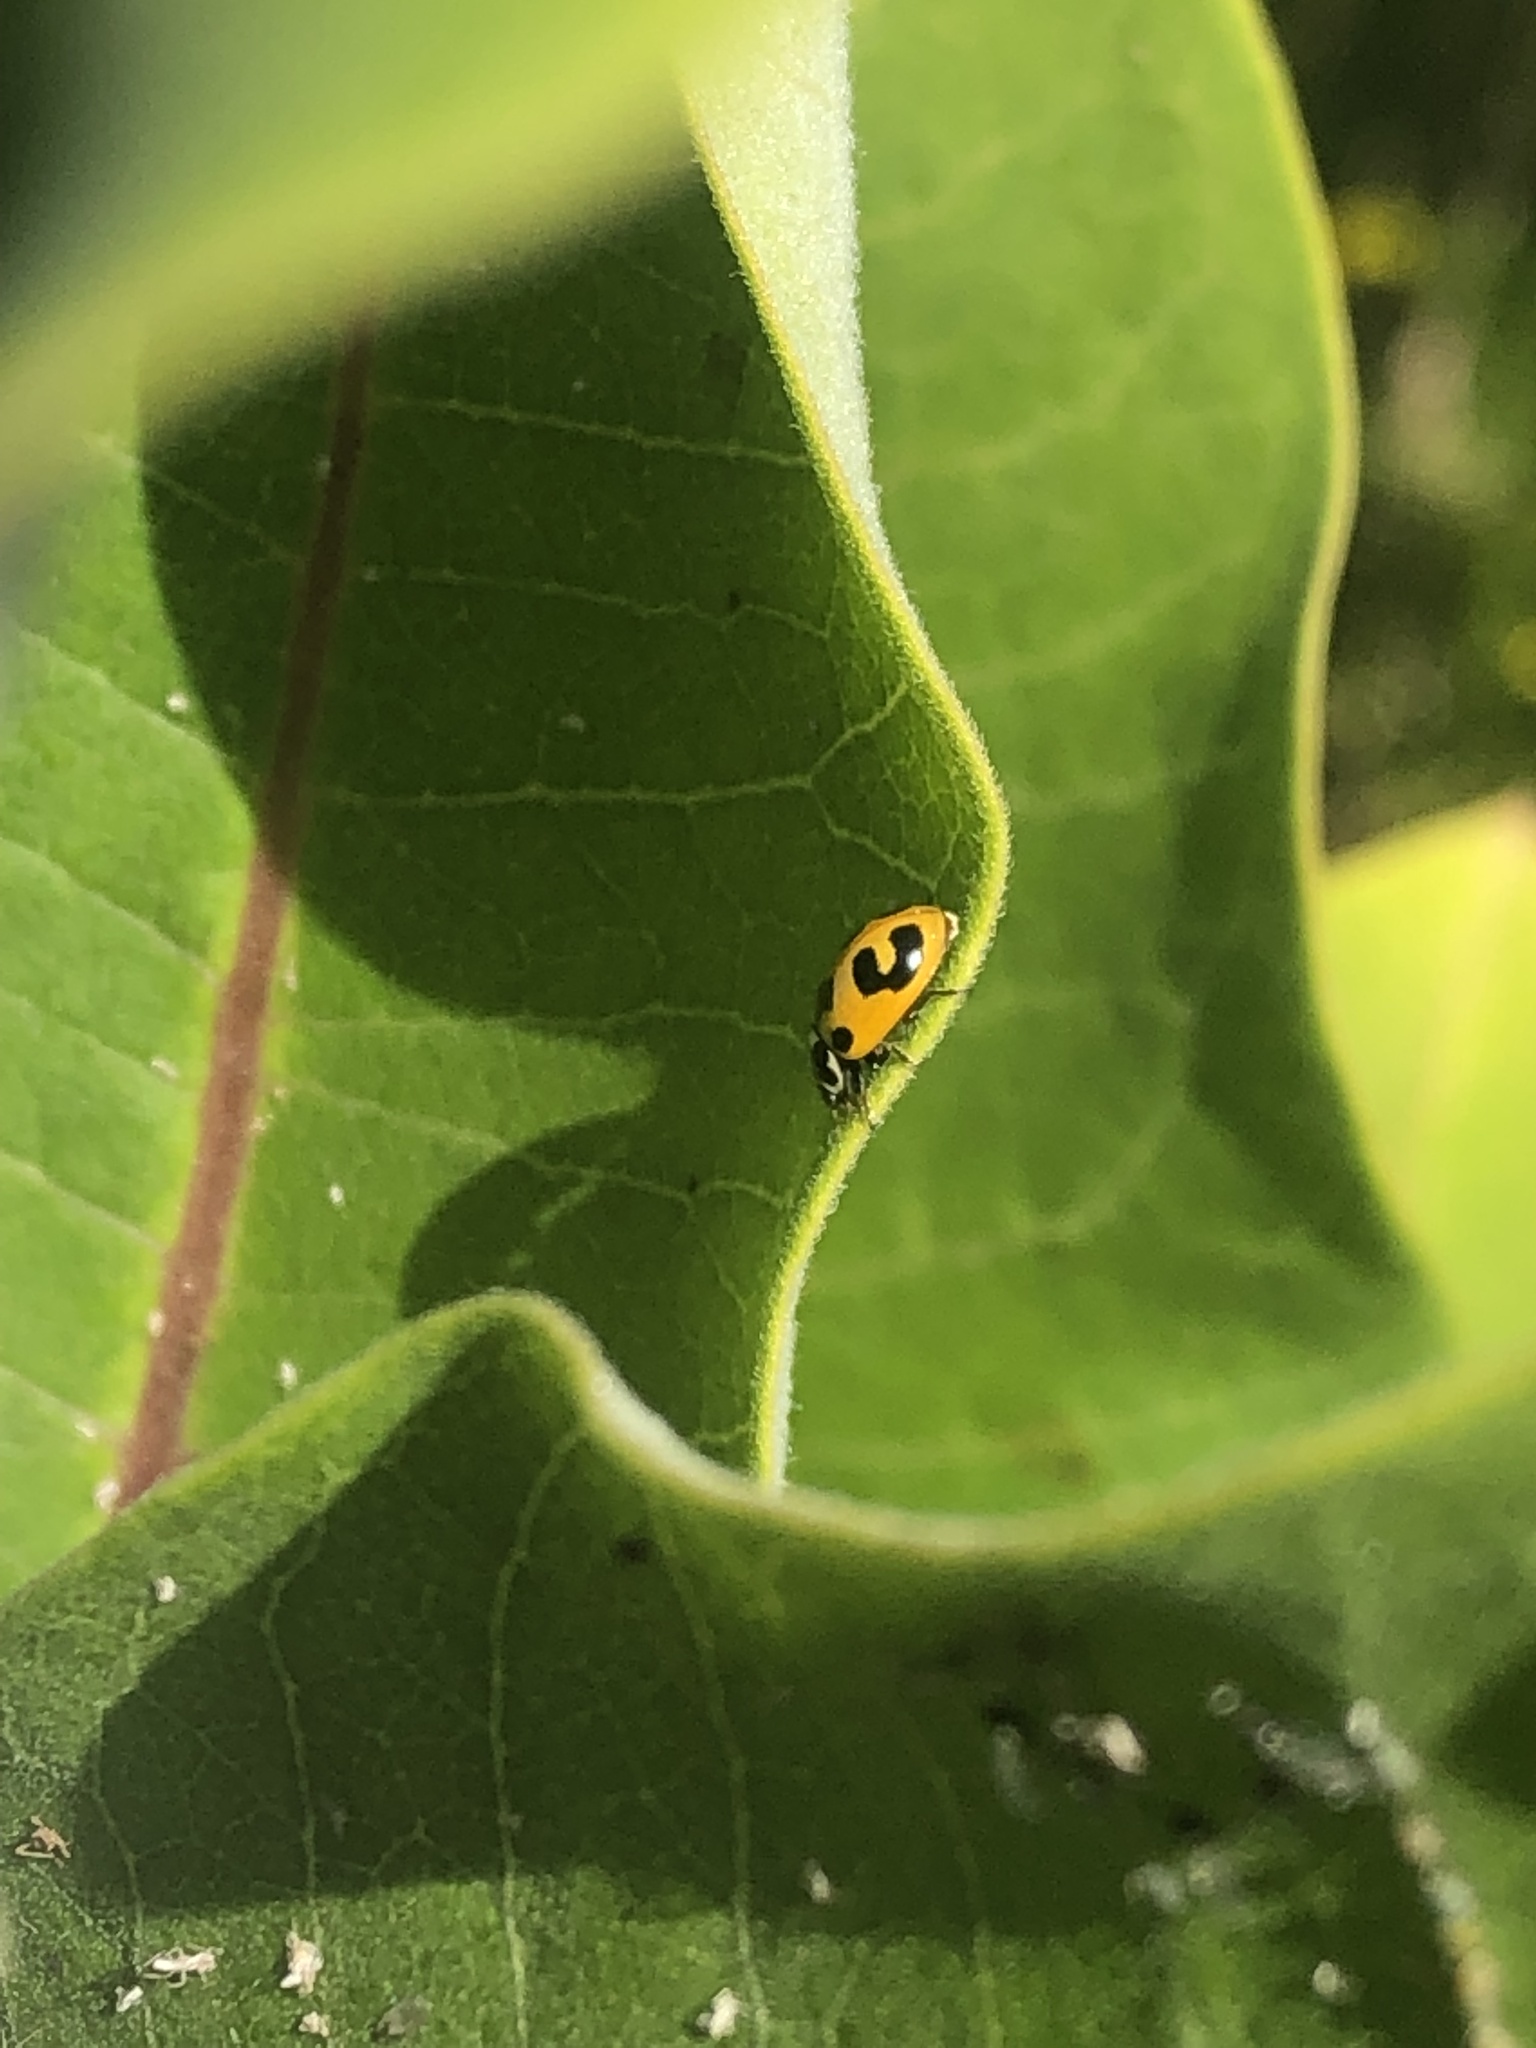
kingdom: Animalia
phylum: Arthropoda
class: Insecta
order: Coleoptera
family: Coccinellidae
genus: Hippodamia
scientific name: Hippodamia parenthesis
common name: Parenthesis lady beetle
